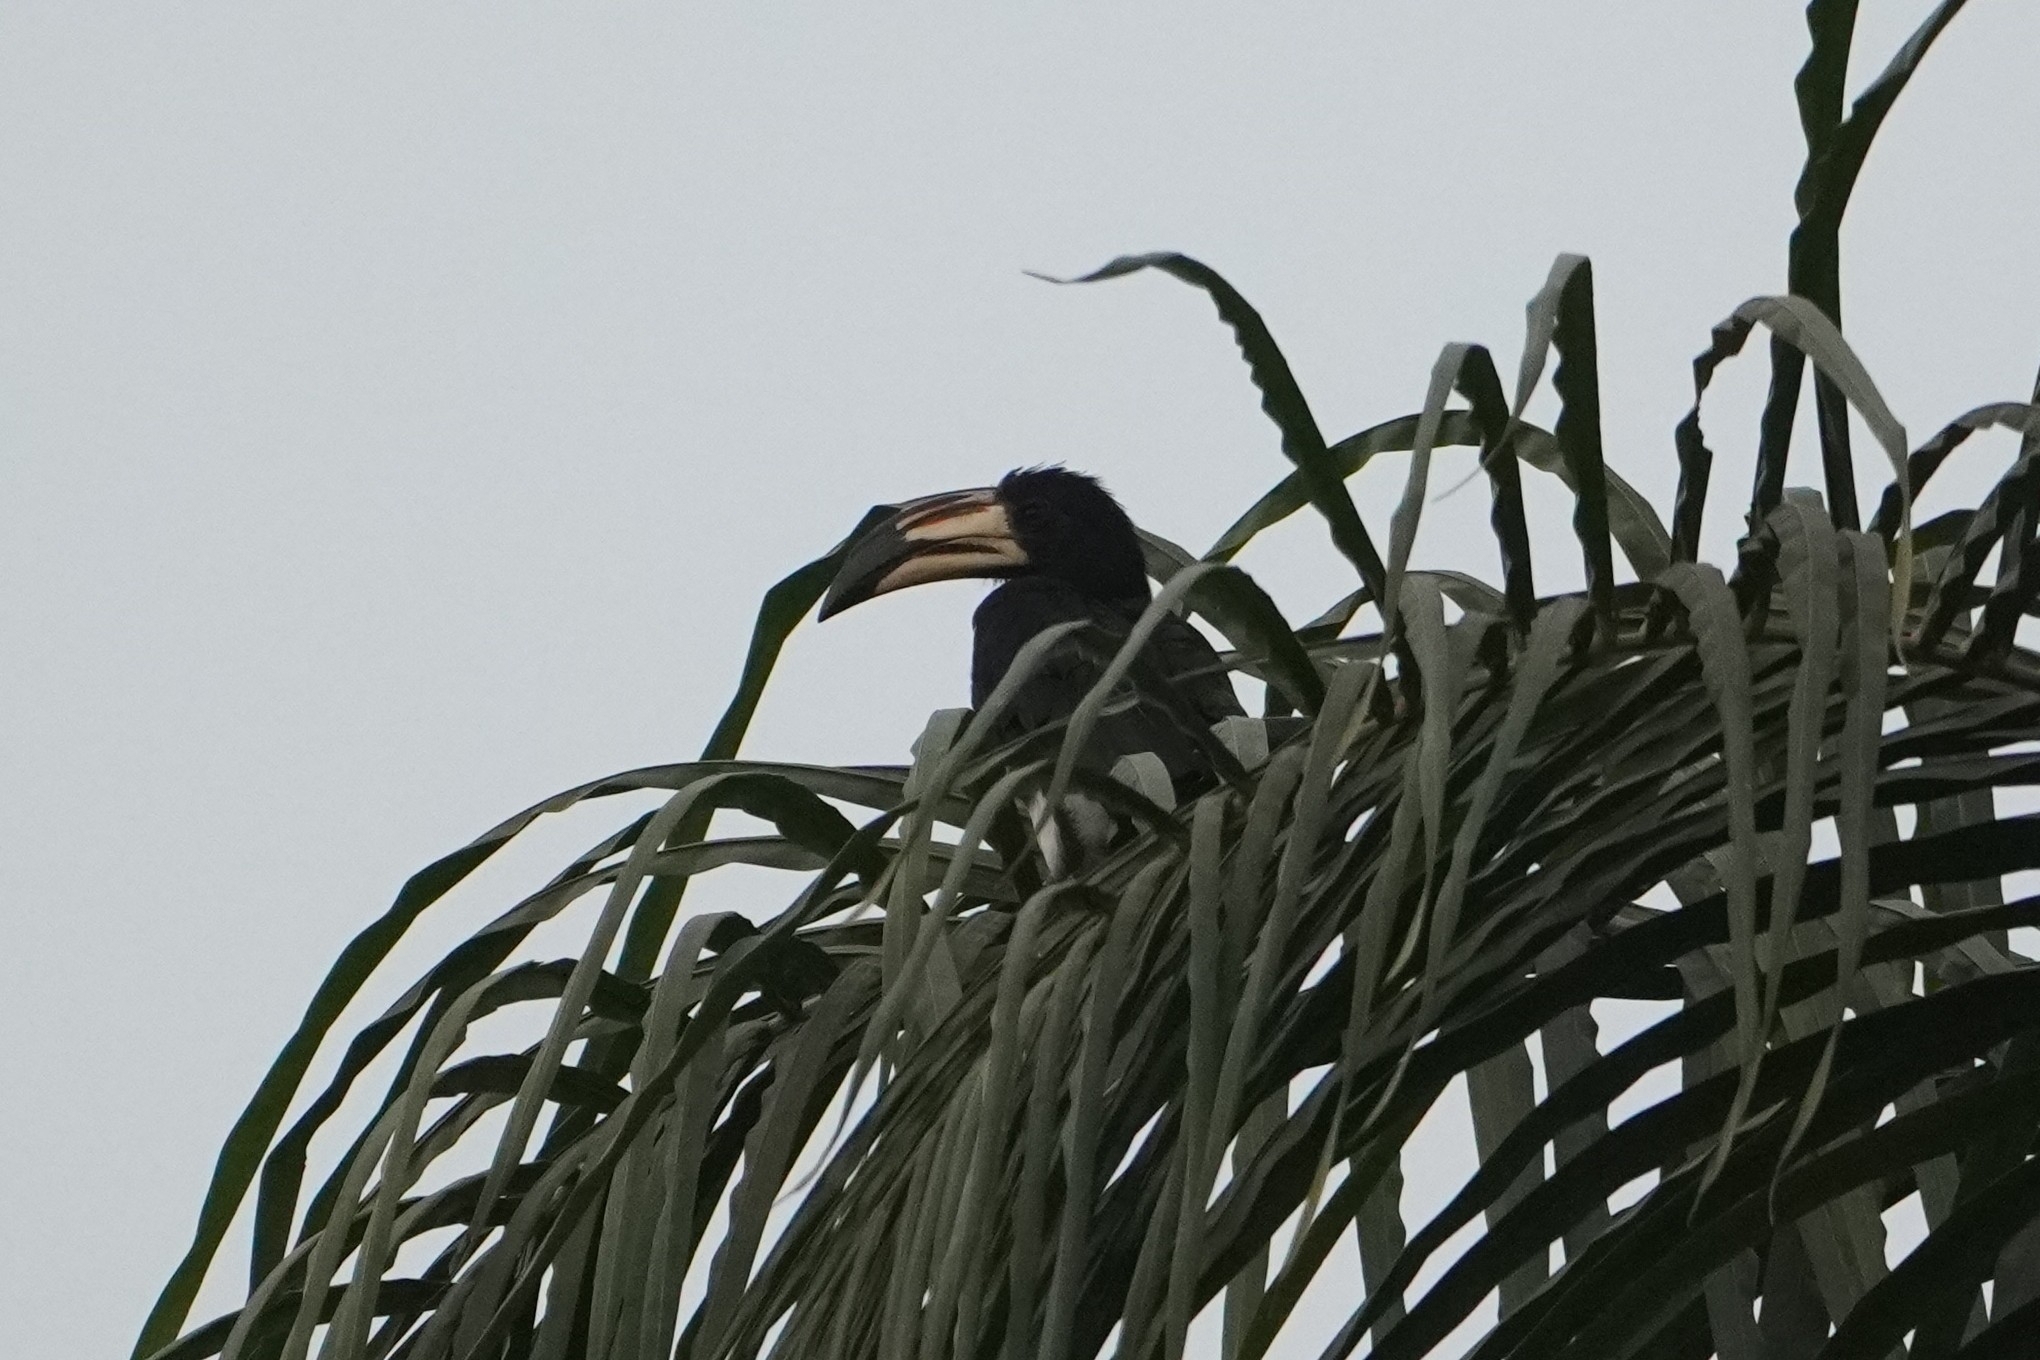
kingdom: Animalia
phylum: Chordata
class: Aves
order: Bucerotiformes
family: Bucerotidae
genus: Lophoceros
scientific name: Lophoceros fasciatus
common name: African pied hornbill
